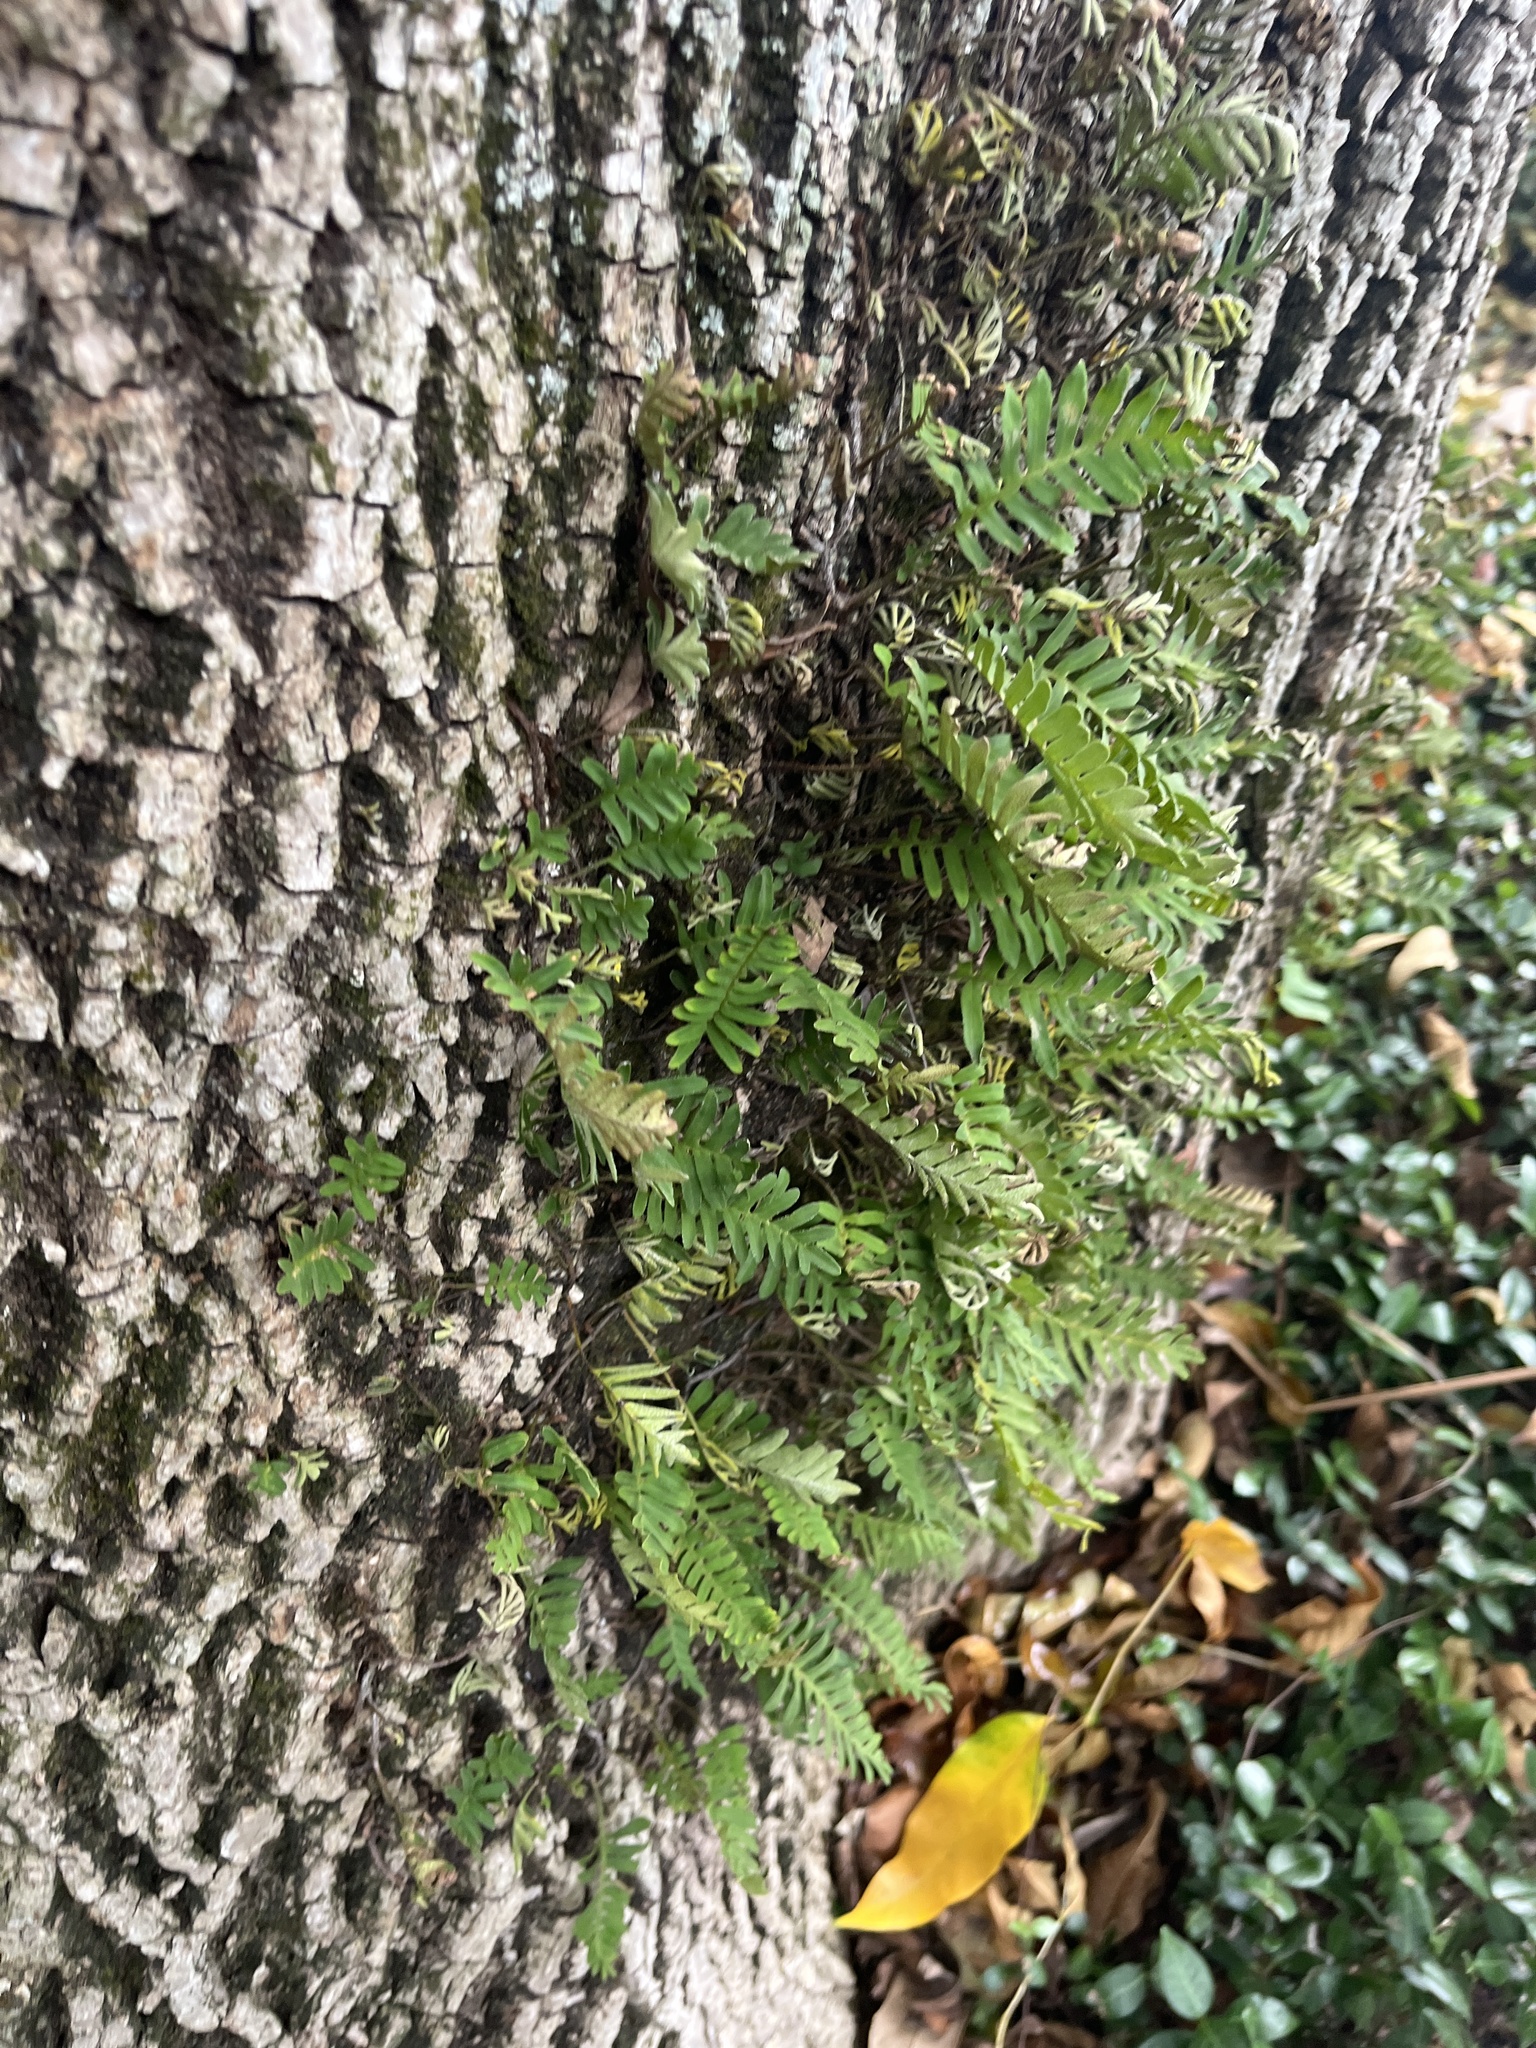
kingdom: Plantae
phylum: Tracheophyta
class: Polypodiopsida
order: Polypodiales
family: Polypodiaceae
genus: Pleopeltis
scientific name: Pleopeltis michauxiana
